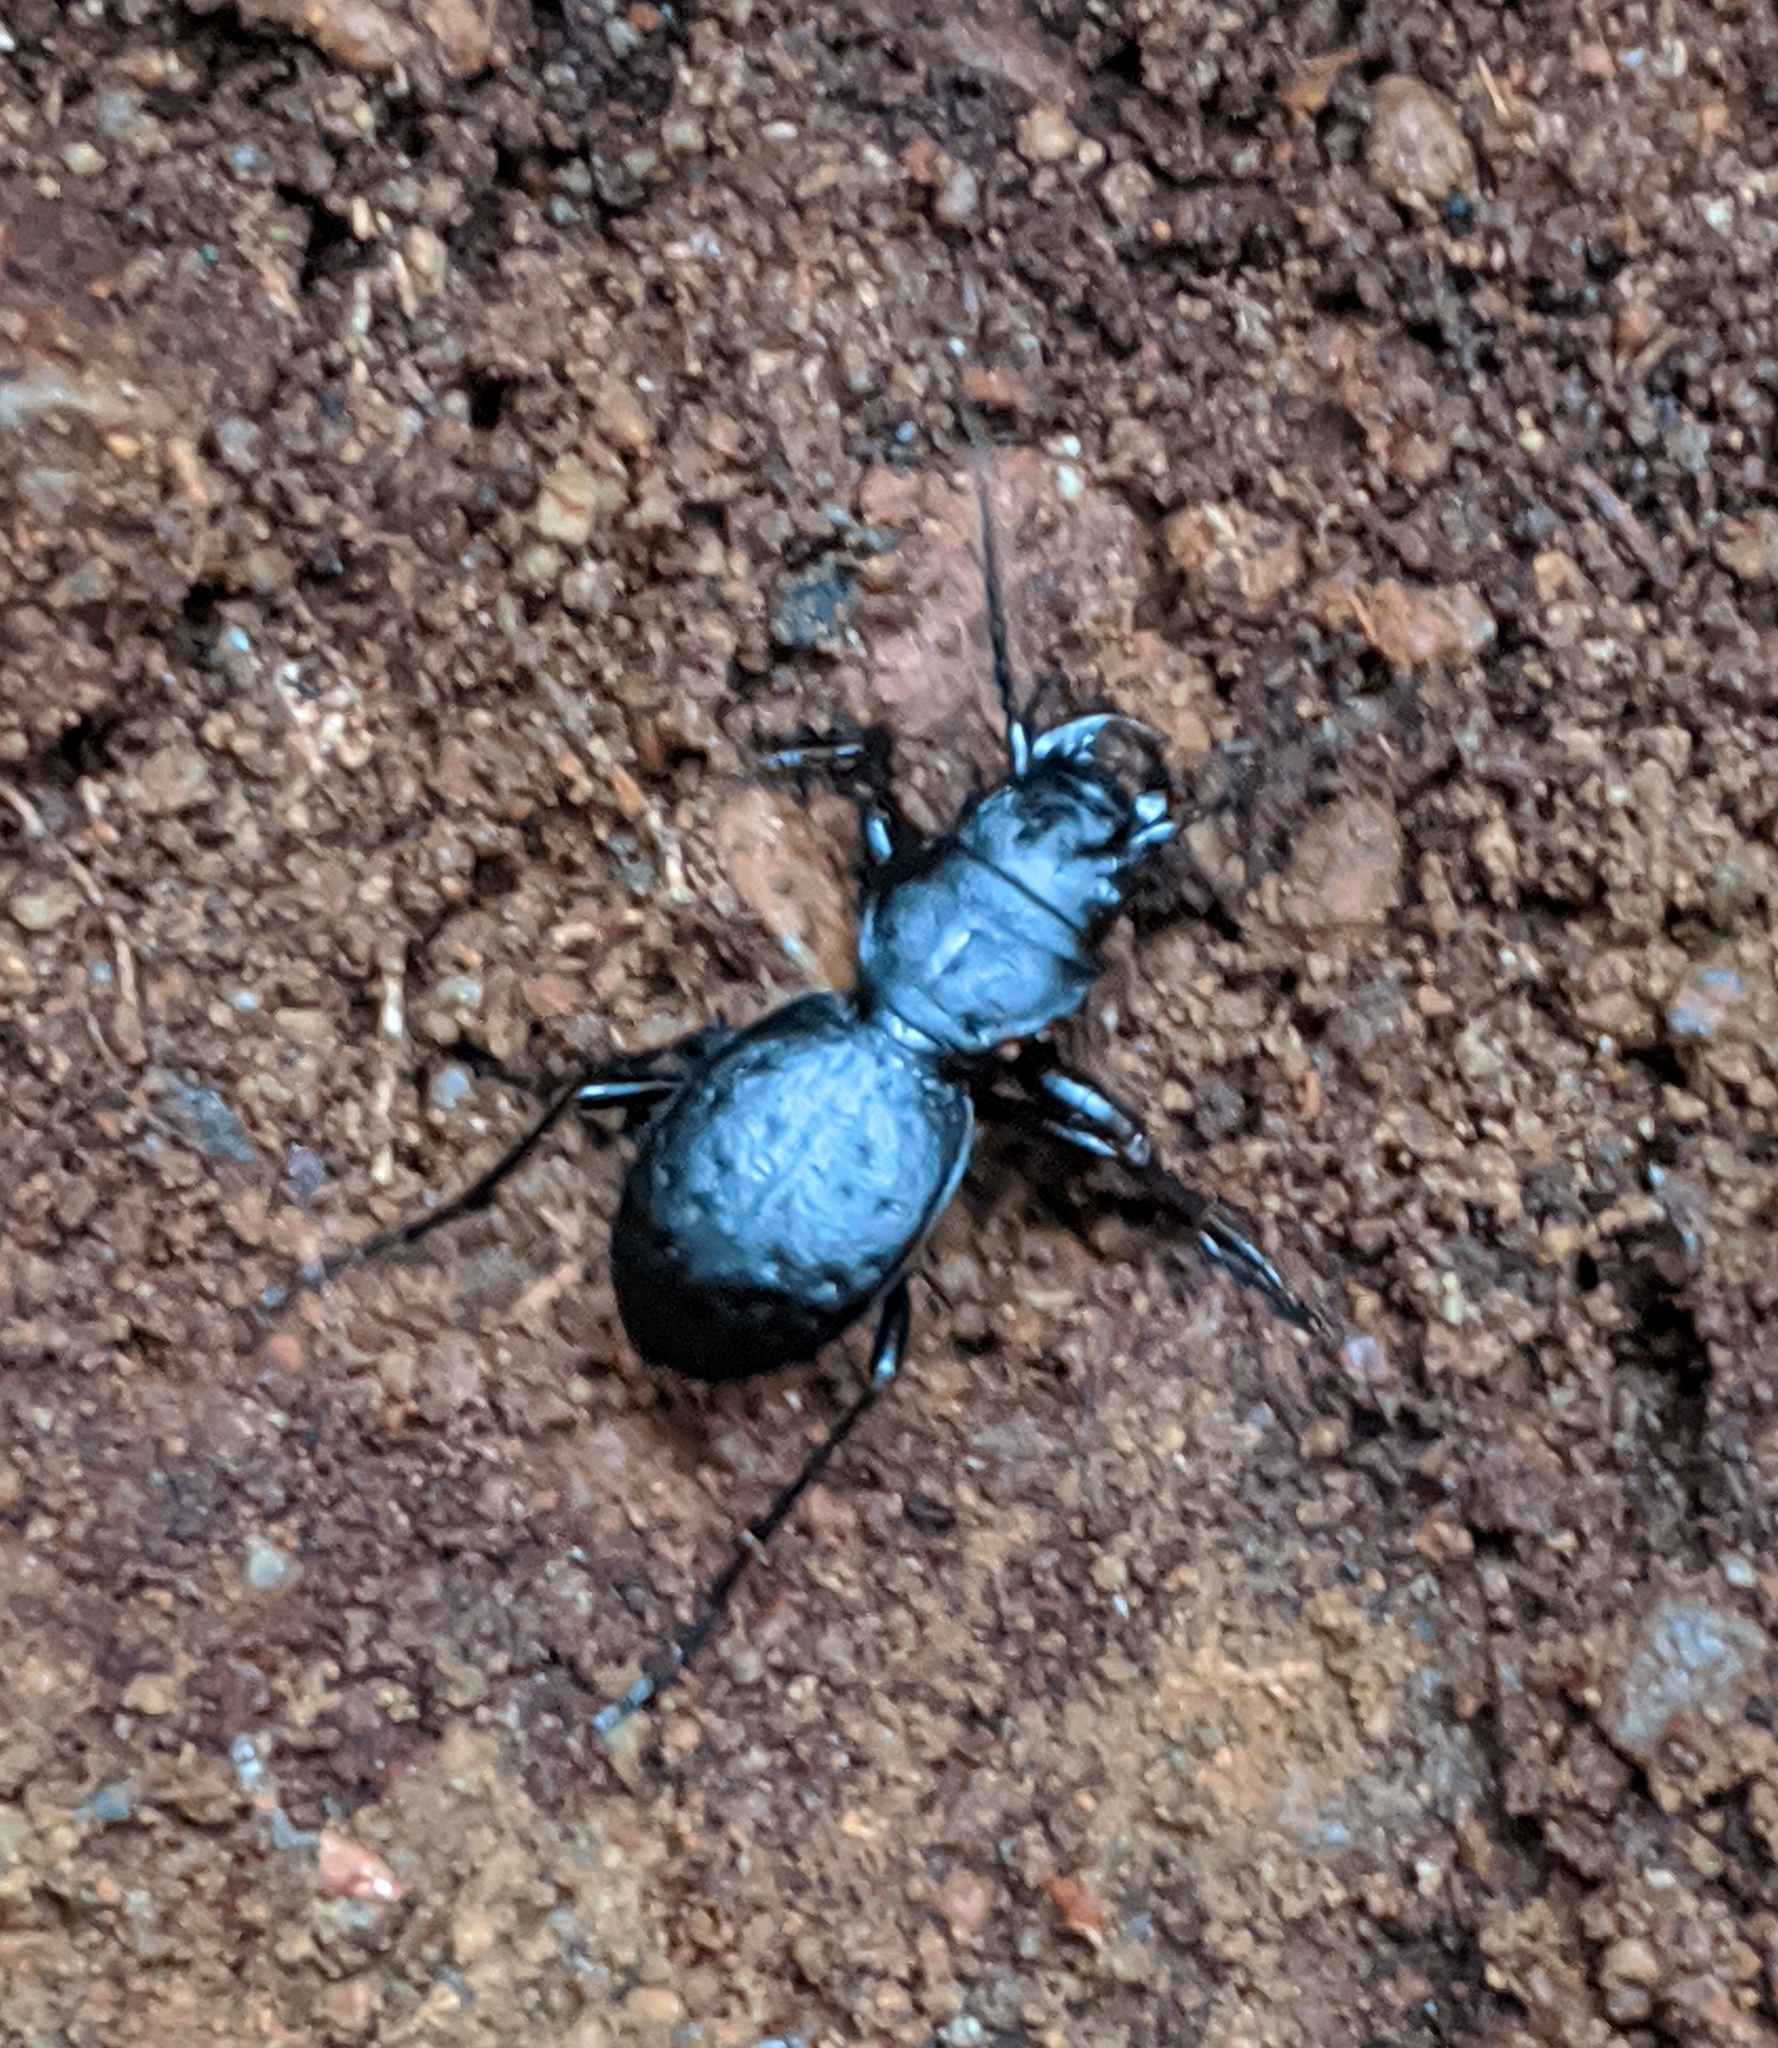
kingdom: Animalia
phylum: Arthropoda
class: Insecta
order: Coleoptera
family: Carabidae
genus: Omus
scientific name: Omus dejeanii
